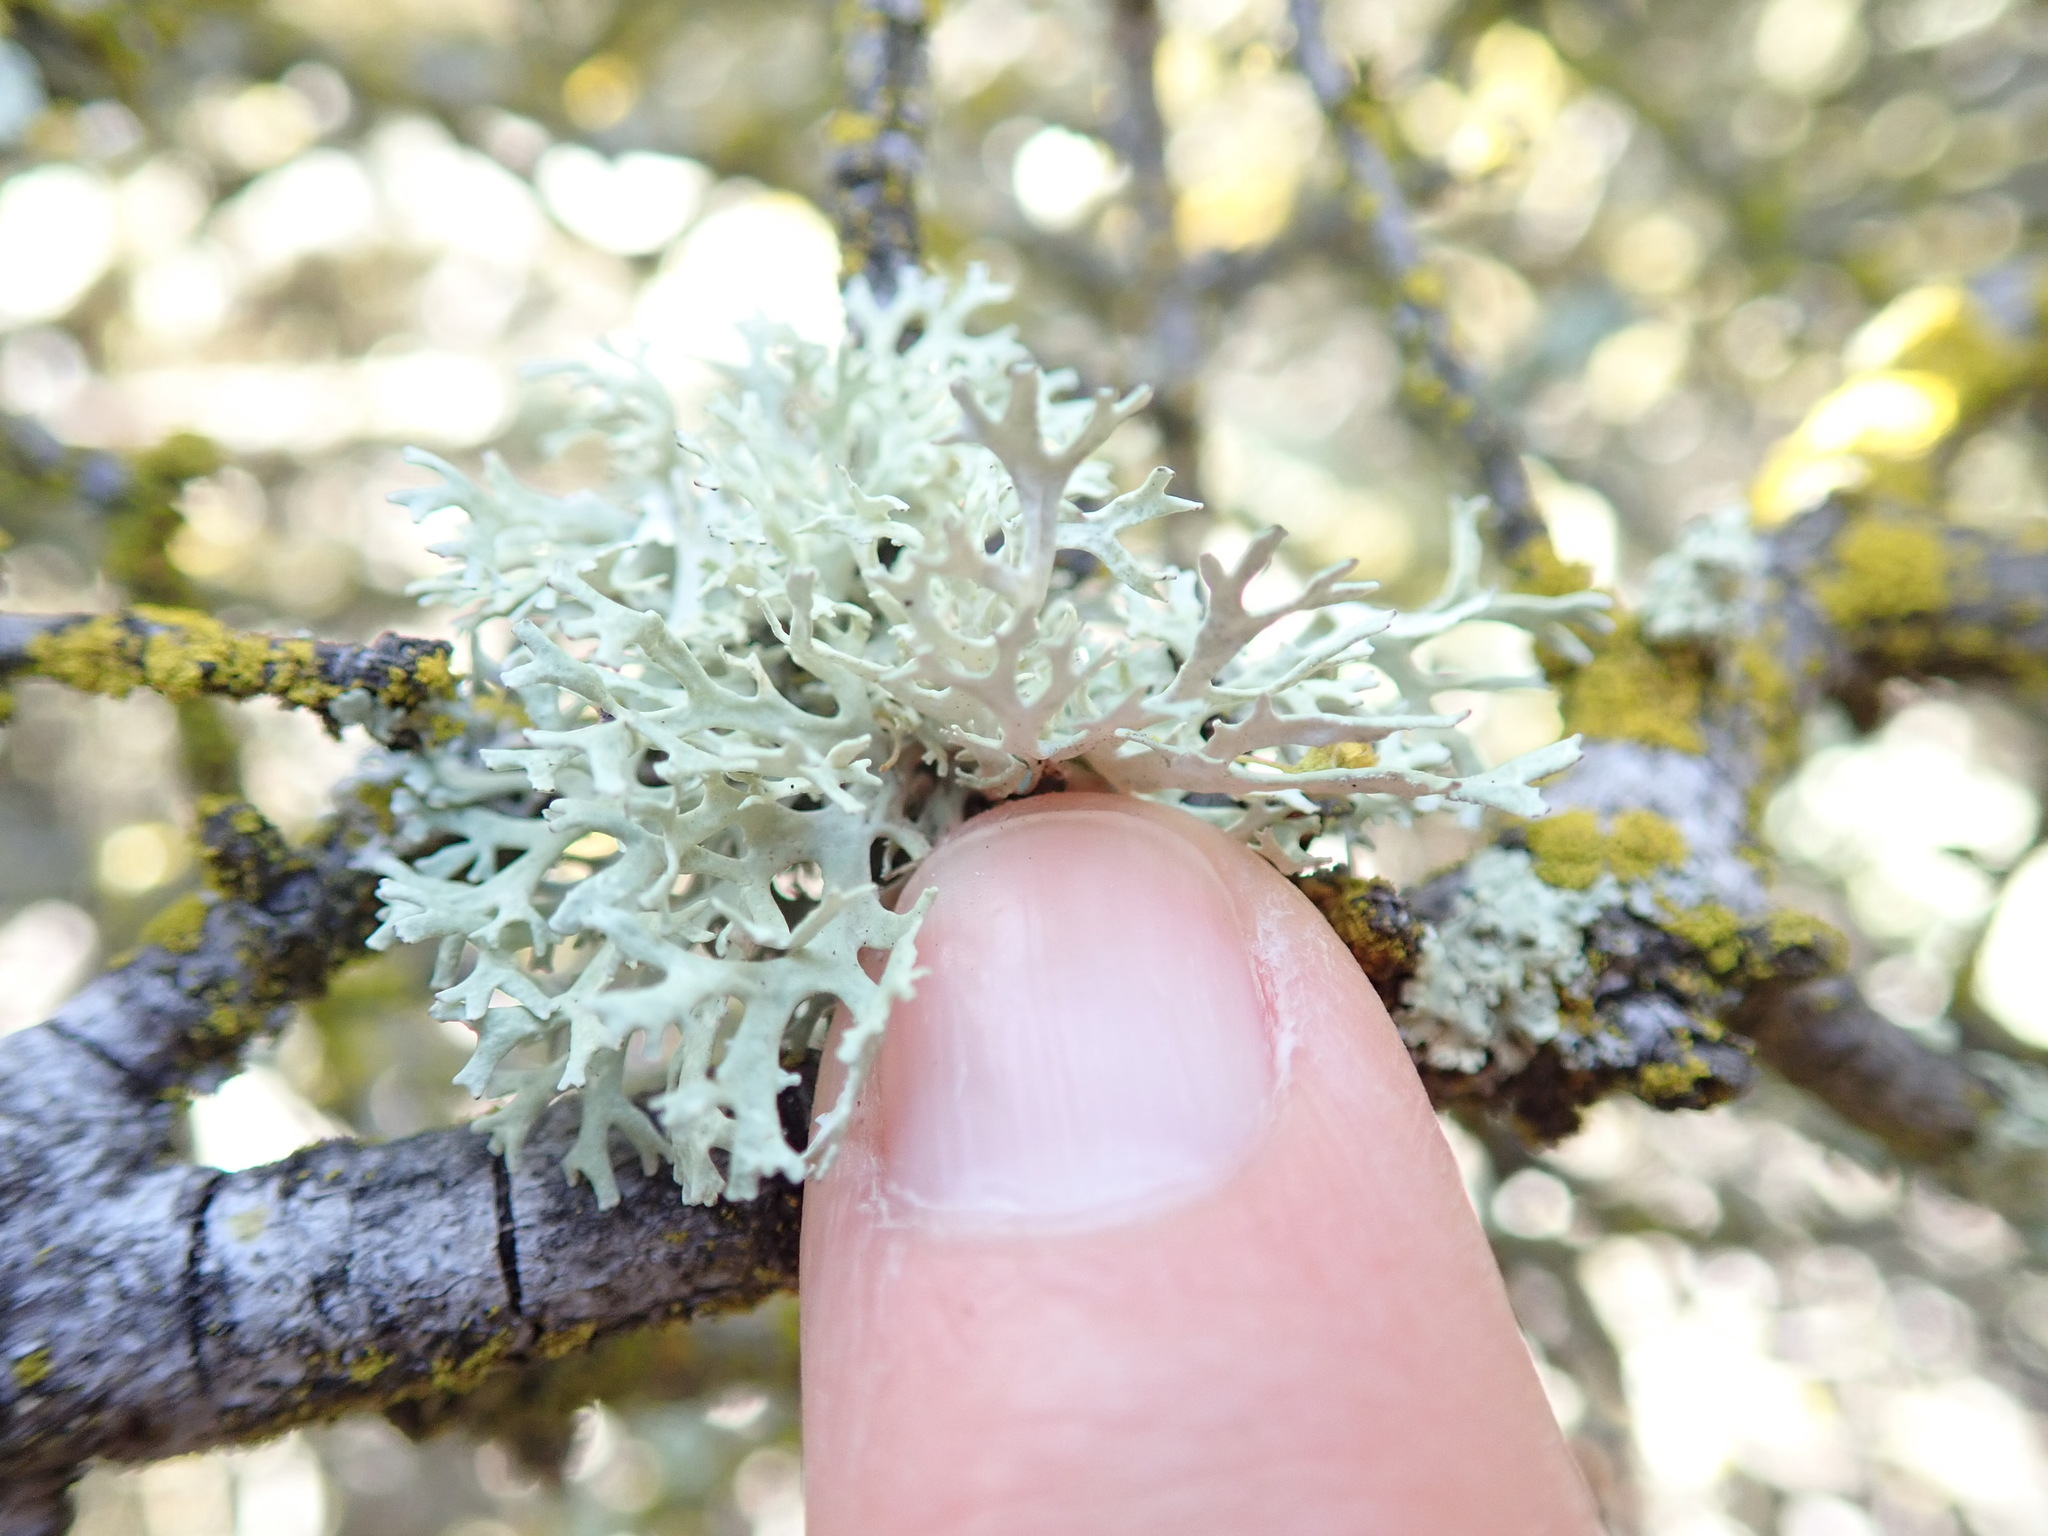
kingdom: Fungi
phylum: Ascomycota
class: Lecanoromycetes
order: Lecanorales
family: Parmeliaceae
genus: Evernia
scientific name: Evernia prunastri
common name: Oak moss
